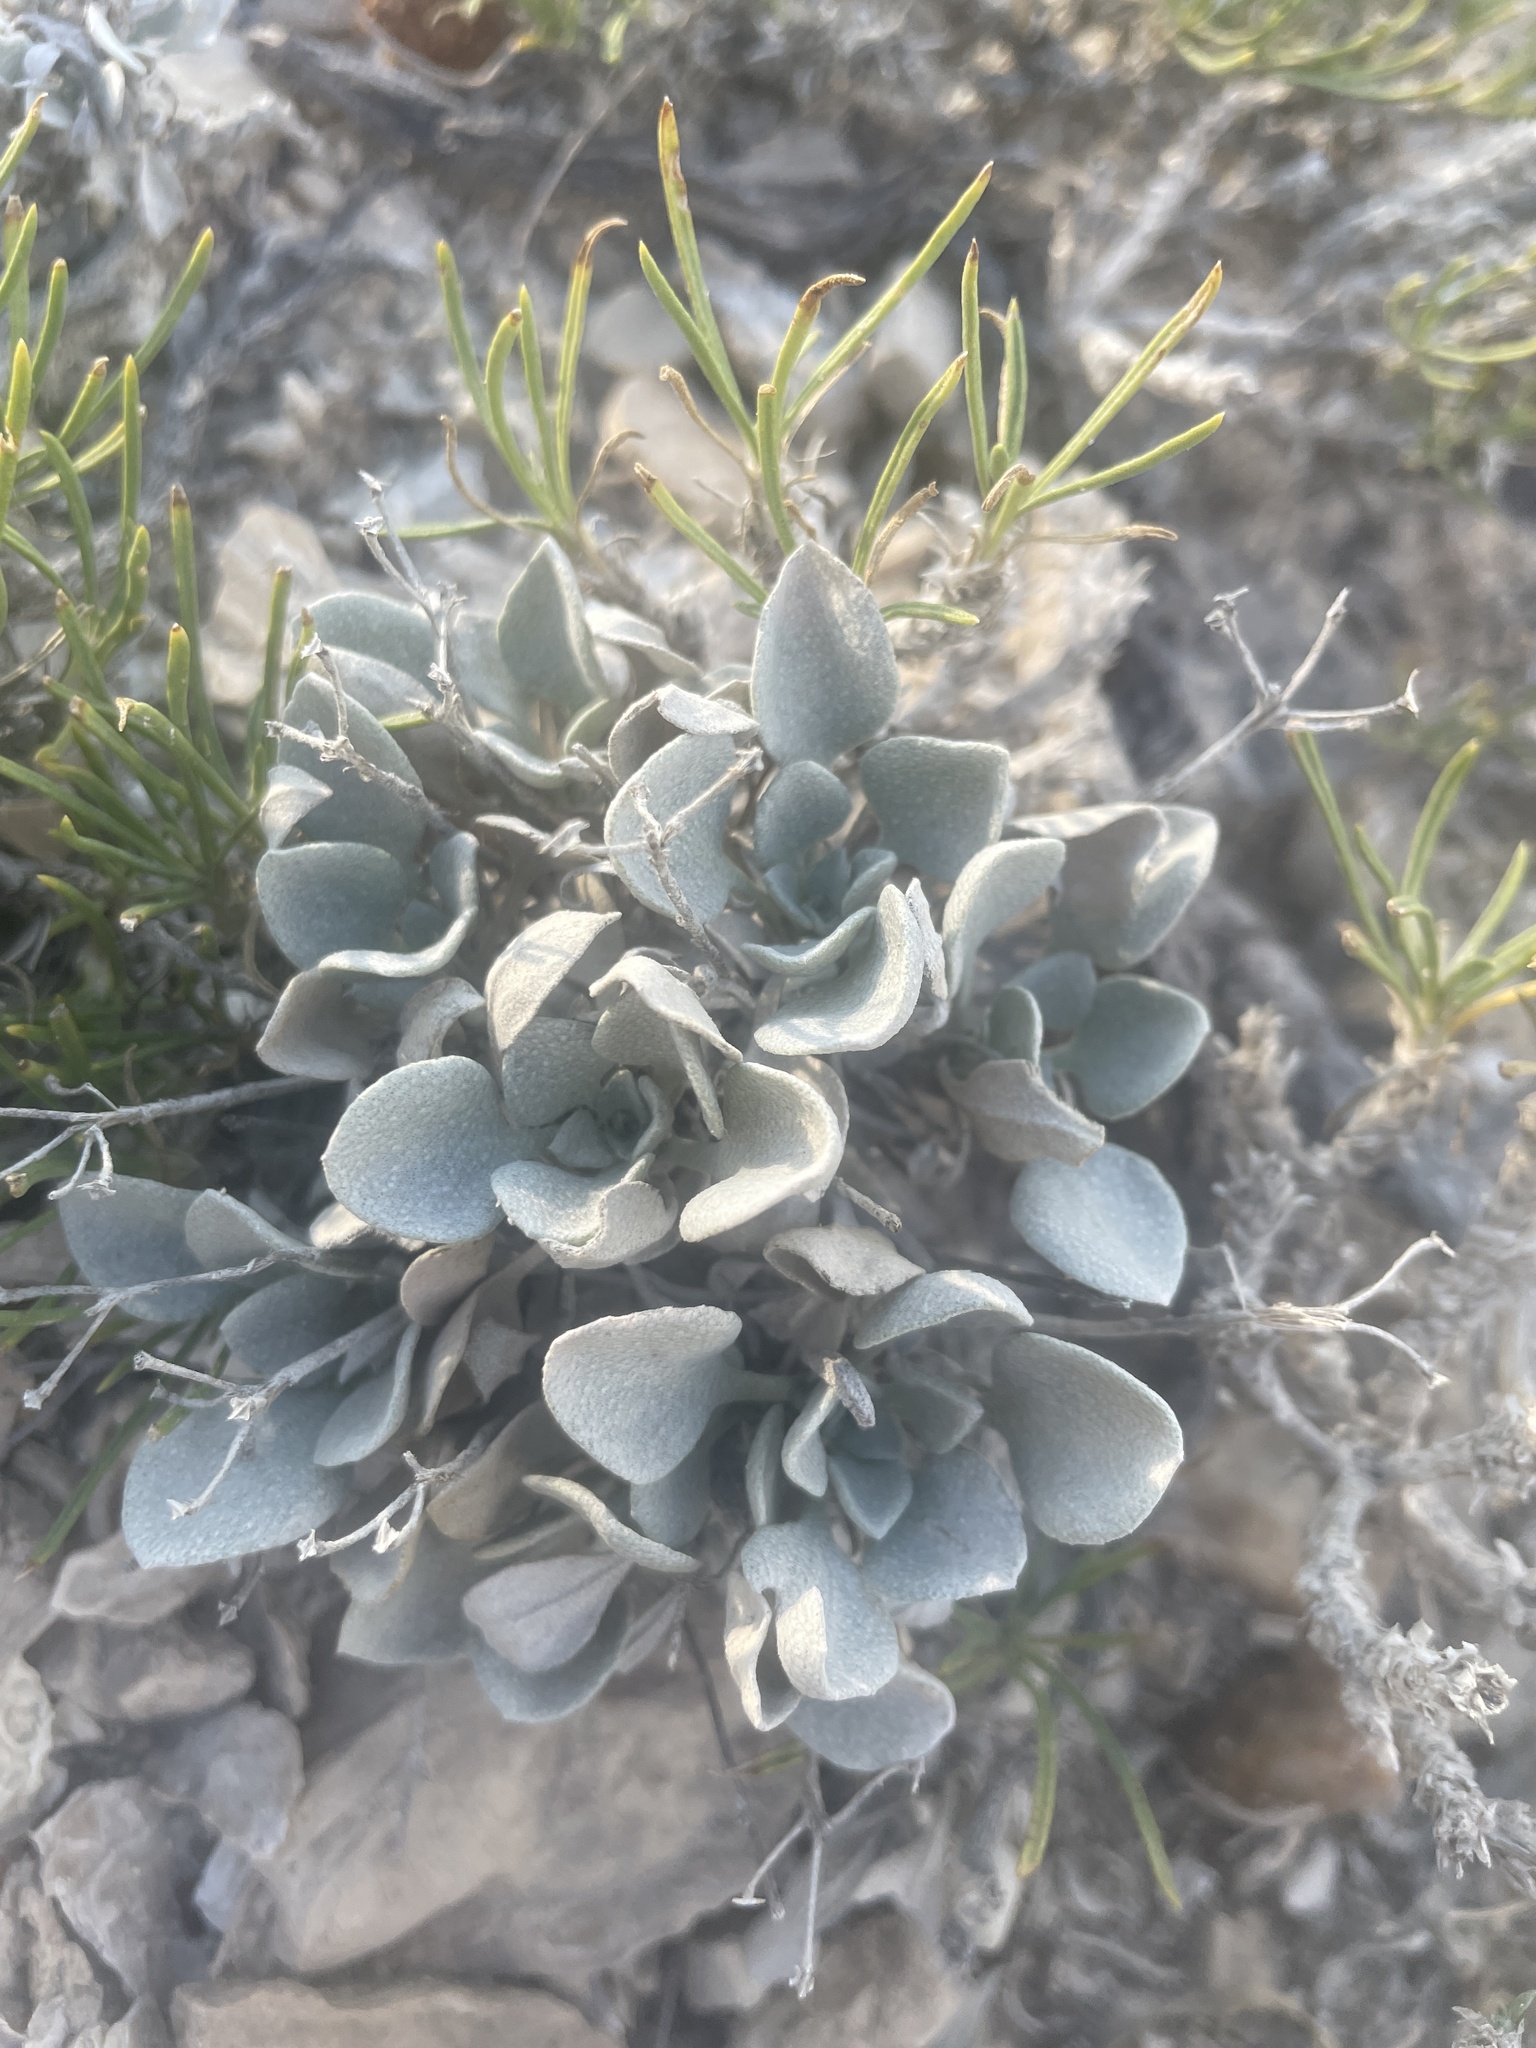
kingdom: Plantae
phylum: Tracheophyta
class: Magnoliopsida
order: Brassicales
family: Brassicaceae
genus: Physaria
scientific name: Physaria ovalifolia
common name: Round-leaf bladderpod
